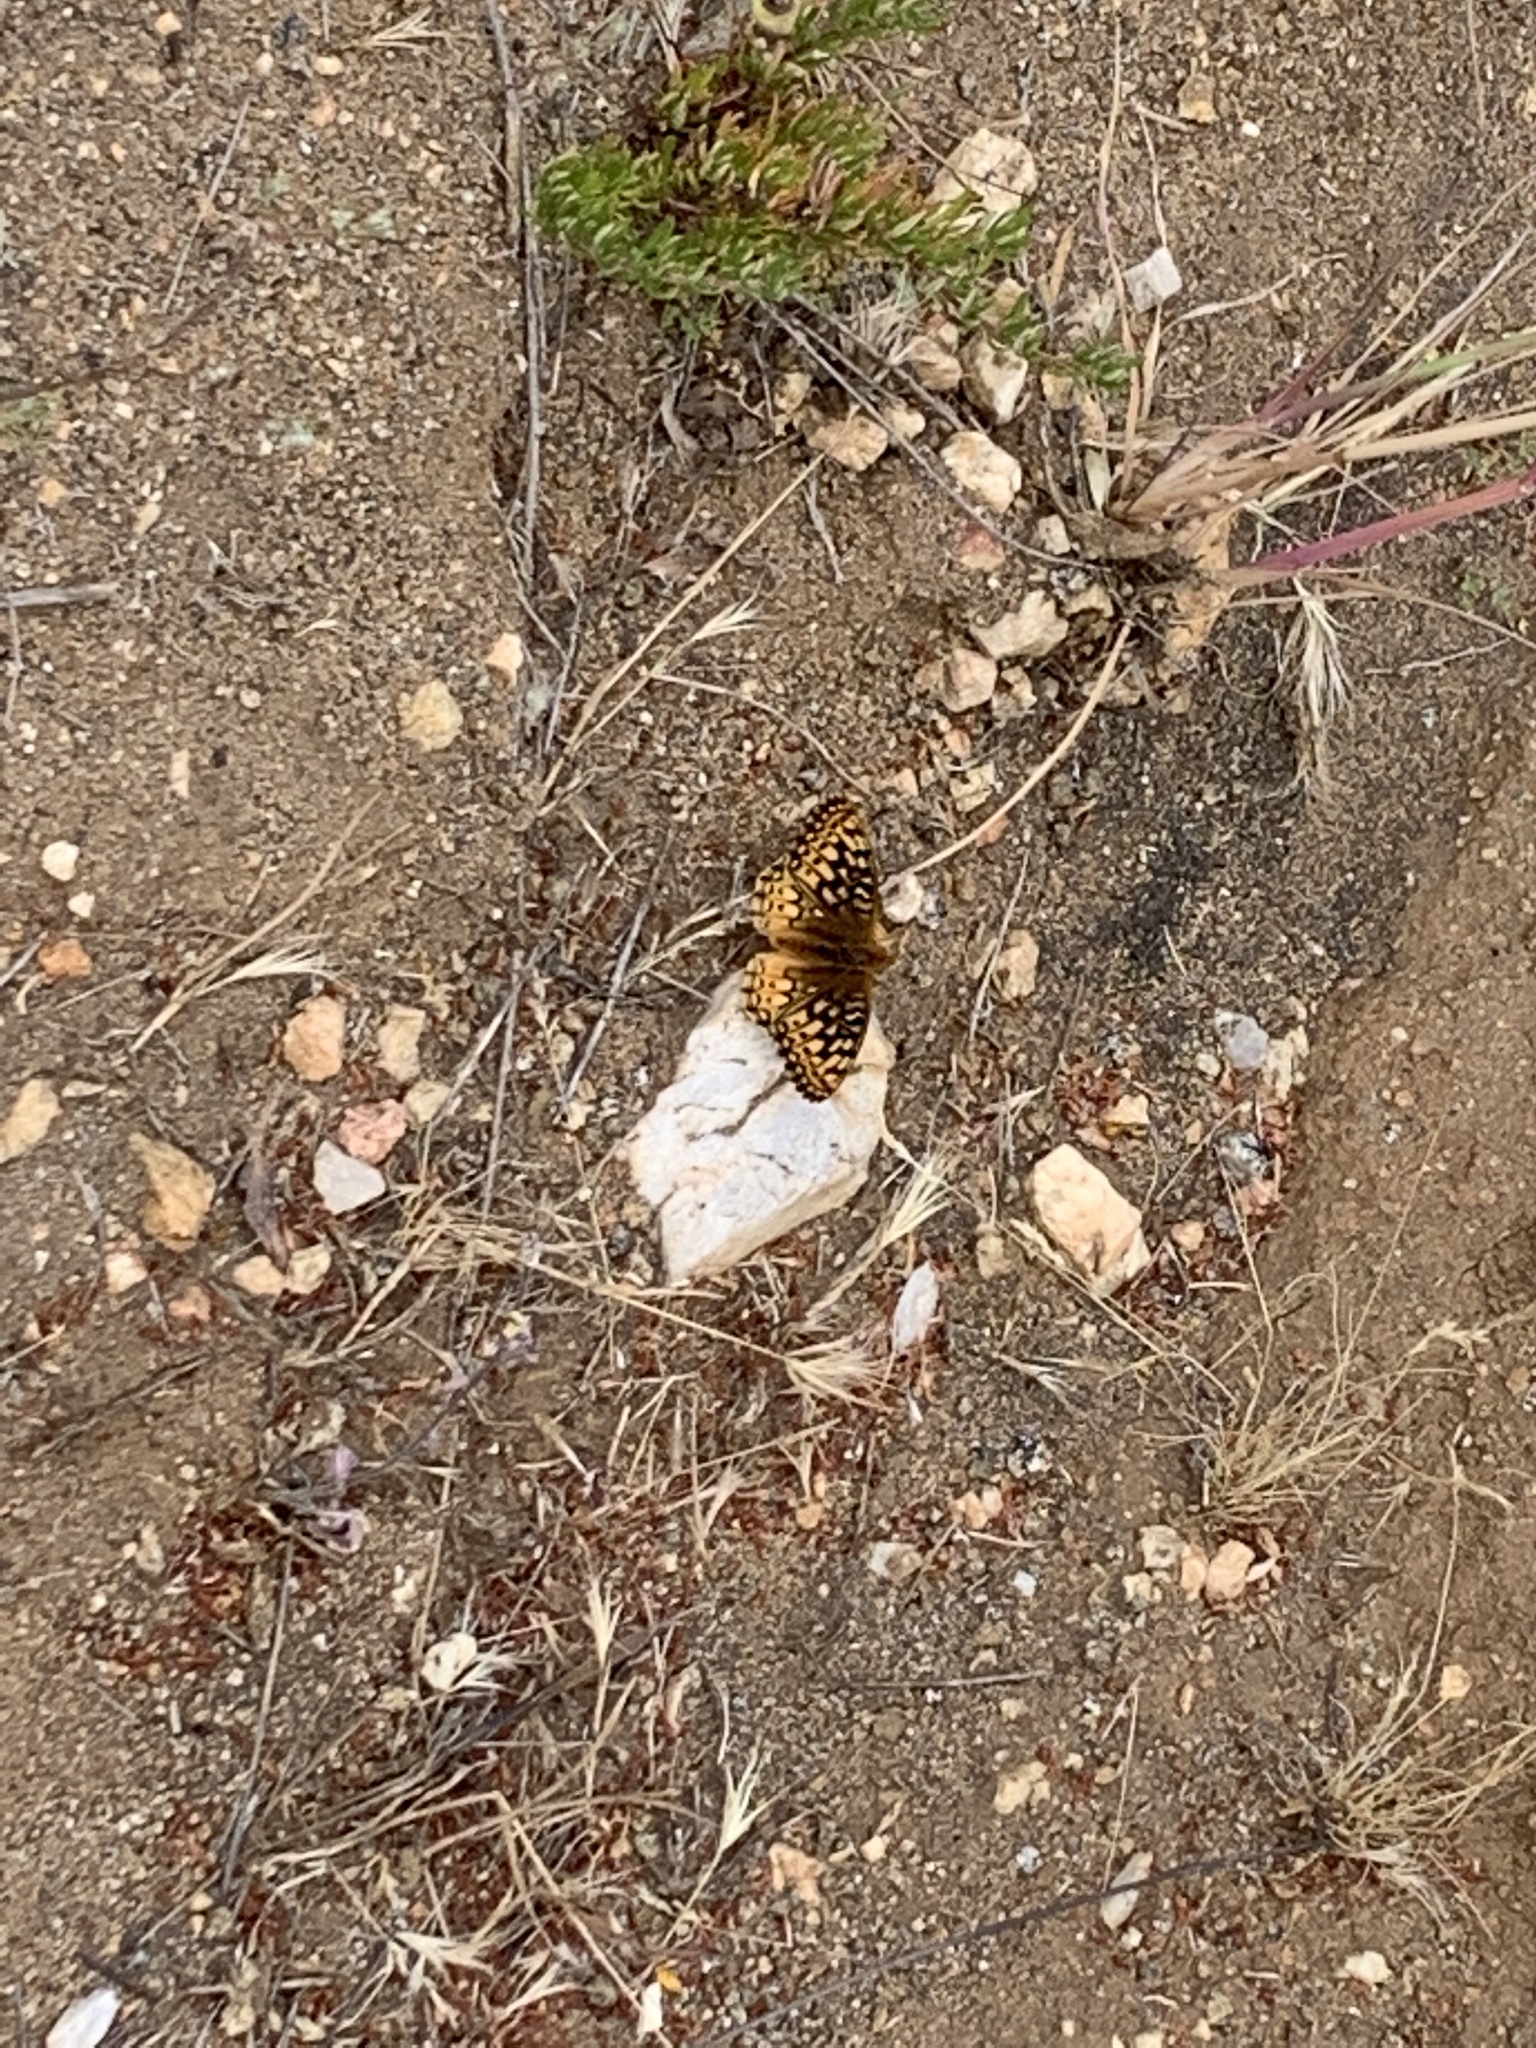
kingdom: Animalia
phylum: Arthropoda
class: Insecta
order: Lepidoptera
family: Nymphalidae
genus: Speyeria
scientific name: Speyeria callippe
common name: Callippe fritillary
